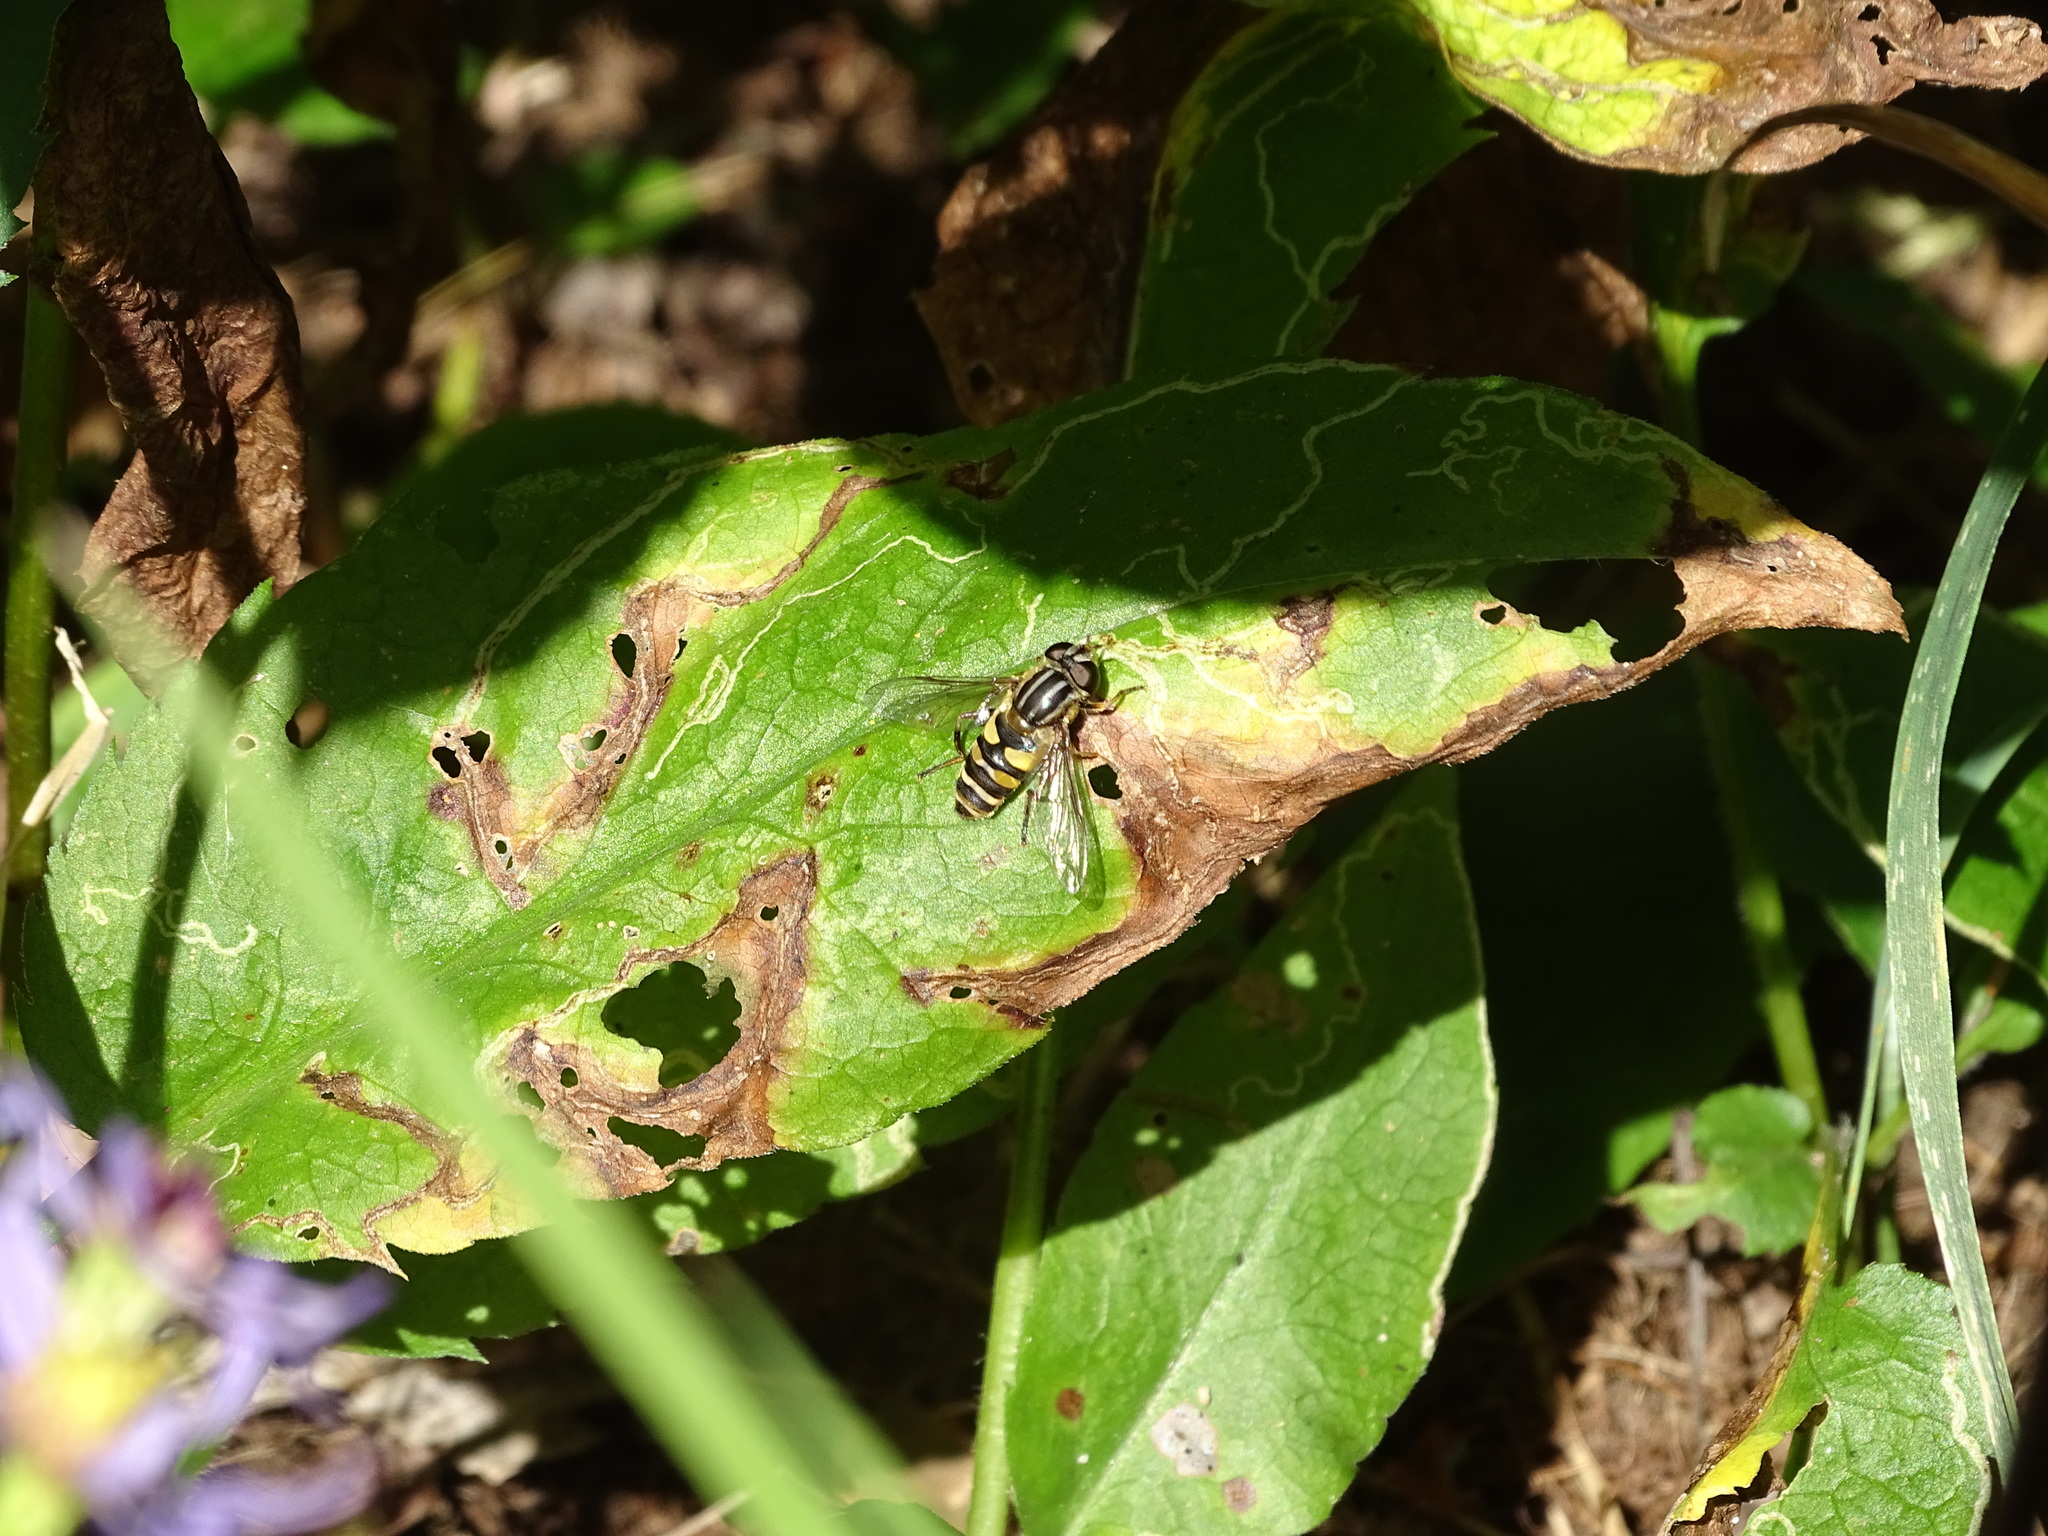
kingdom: Animalia
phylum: Arthropoda
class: Insecta
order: Diptera
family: Syrphidae
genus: Helophilus
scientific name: Helophilus fasciatus
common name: Narrow-headed marsh fly
